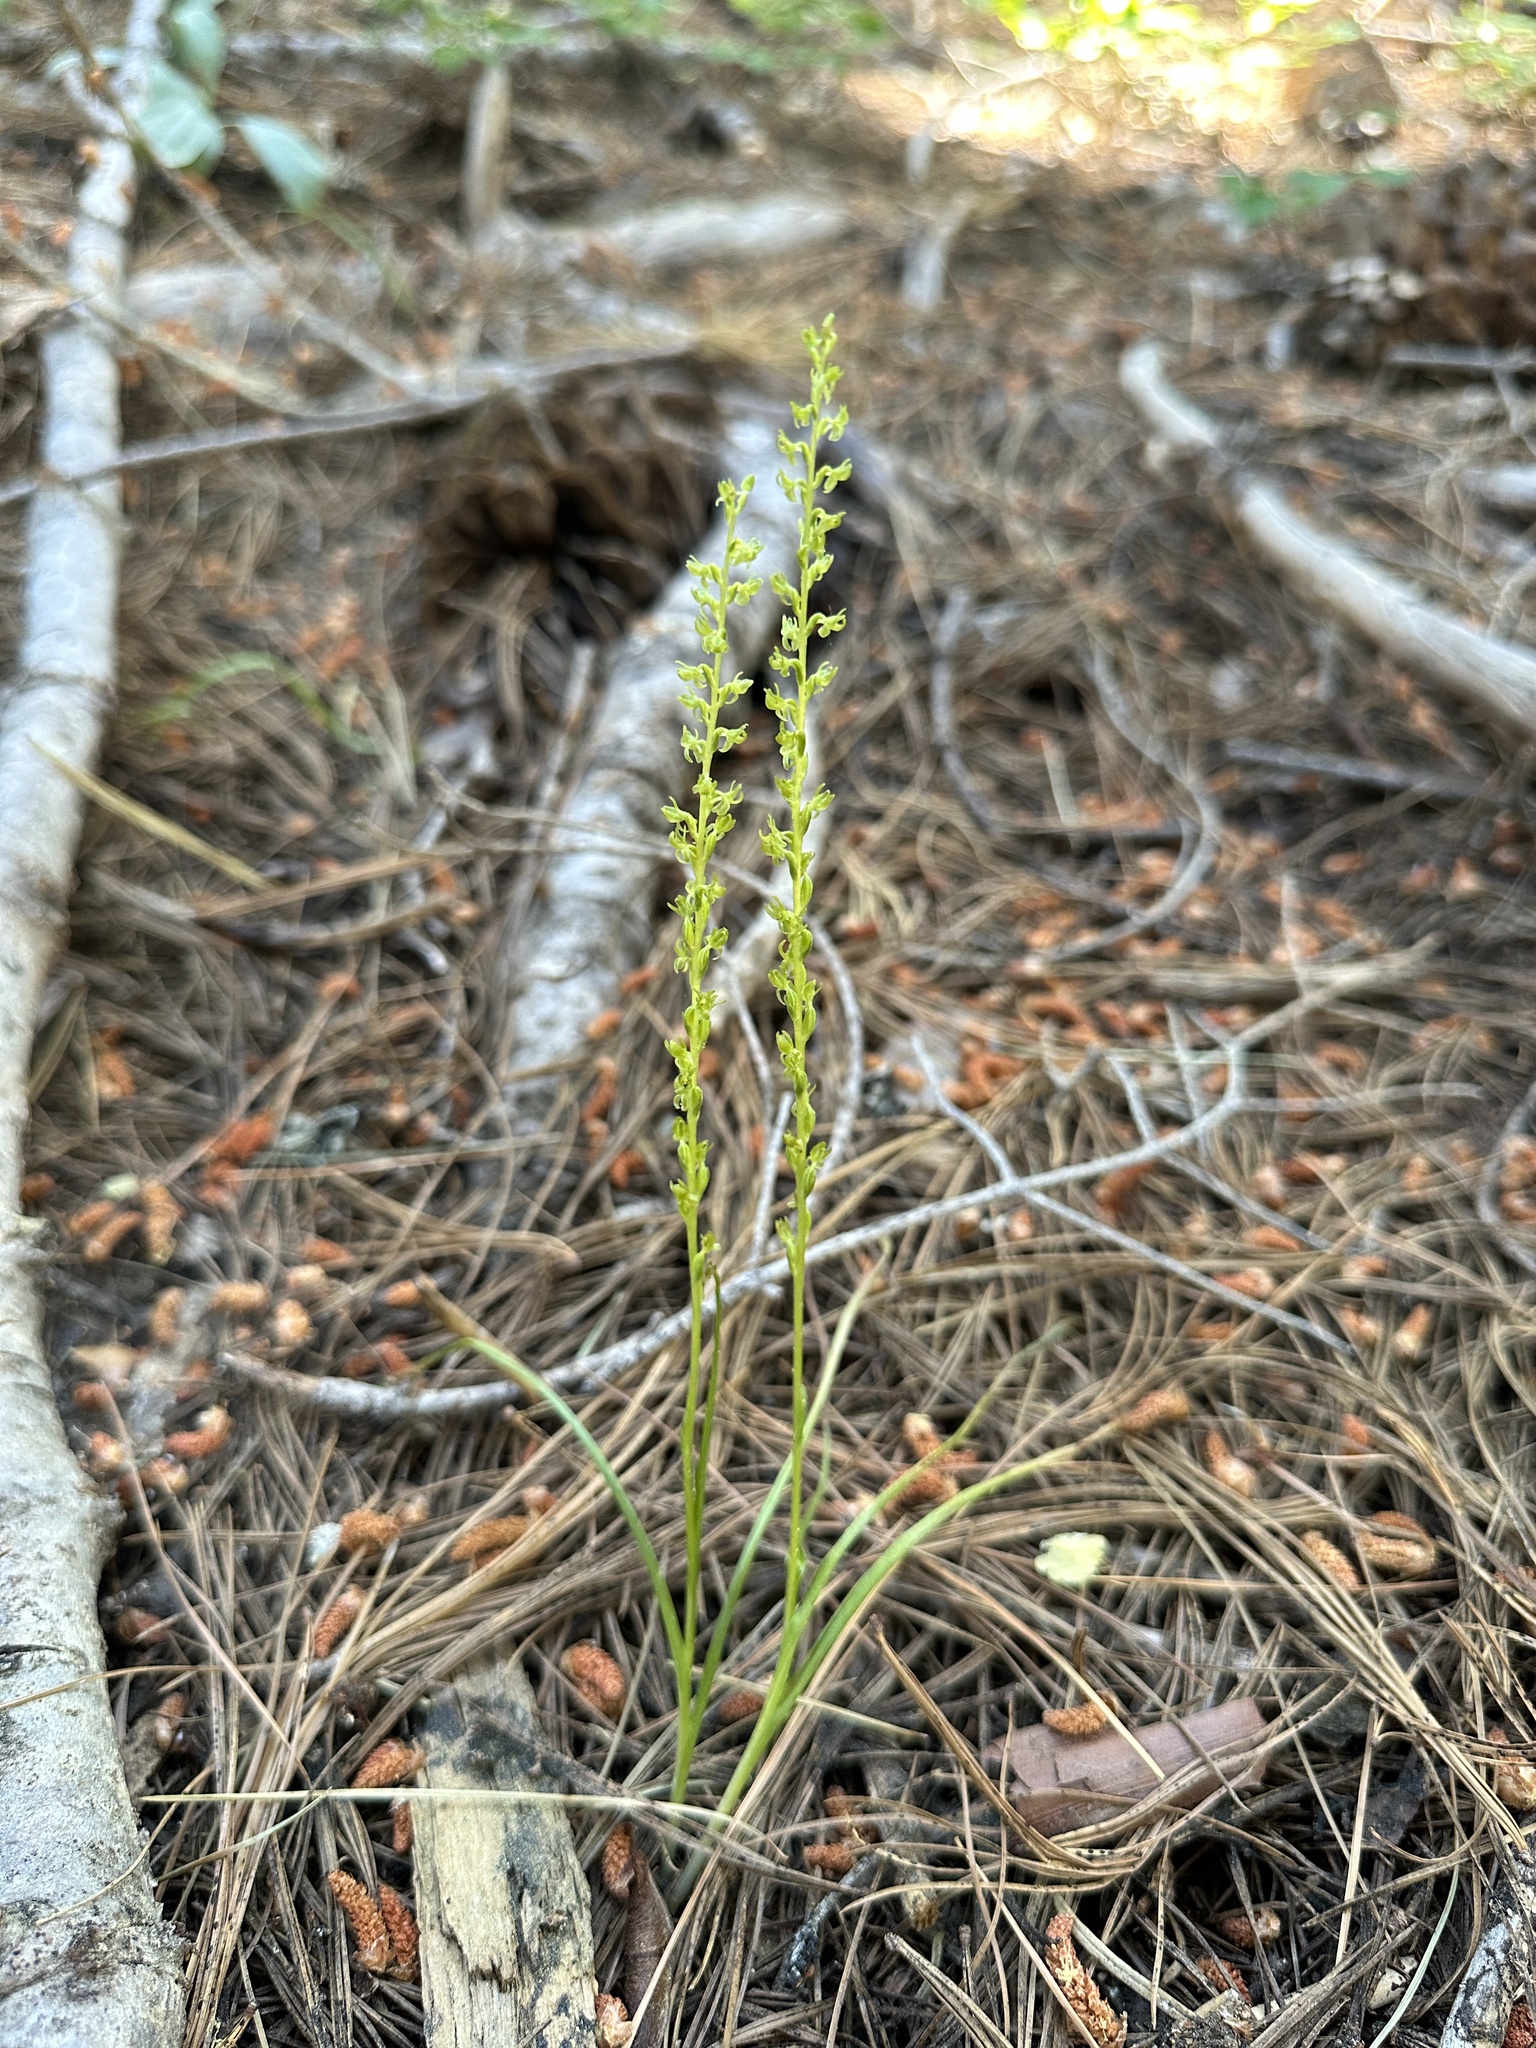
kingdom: Plantae
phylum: Tracheophyta
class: Liliopsida
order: Asparagales
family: Orchidaceae
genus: Platanthera
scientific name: Platanthera colemanii
